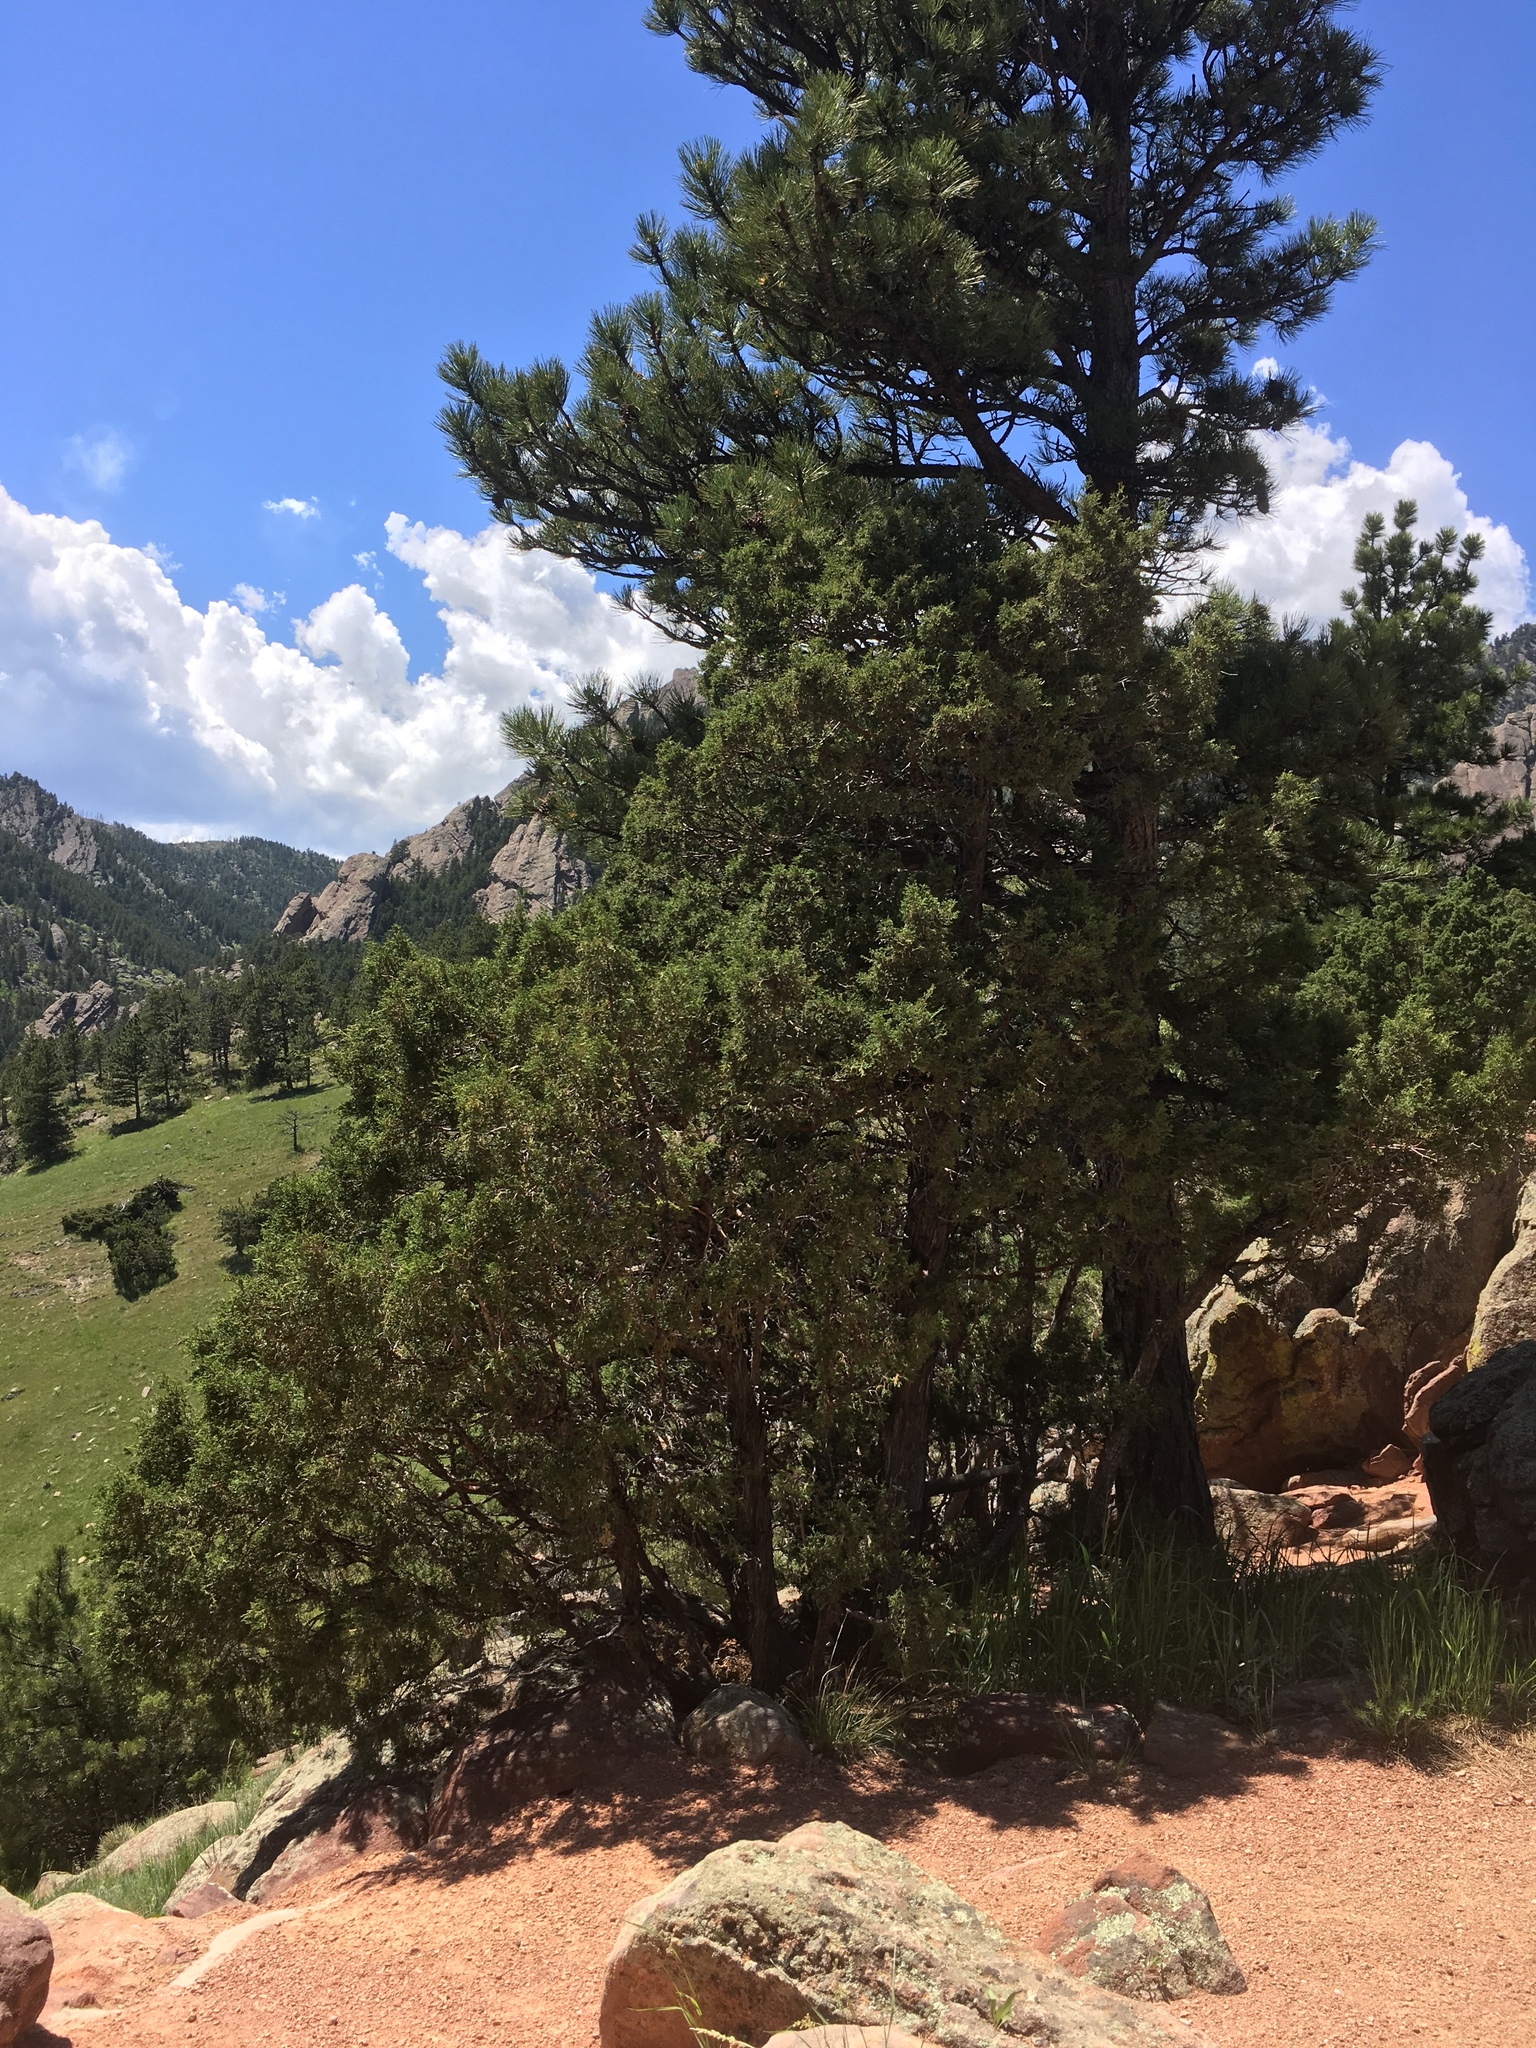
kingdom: Plantae
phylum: Tracheophyta
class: Pinopsida
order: Pinales
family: Cupressaceae
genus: Juniperus
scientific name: Juniperus scopulorum
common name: Rocky mountain juniper
